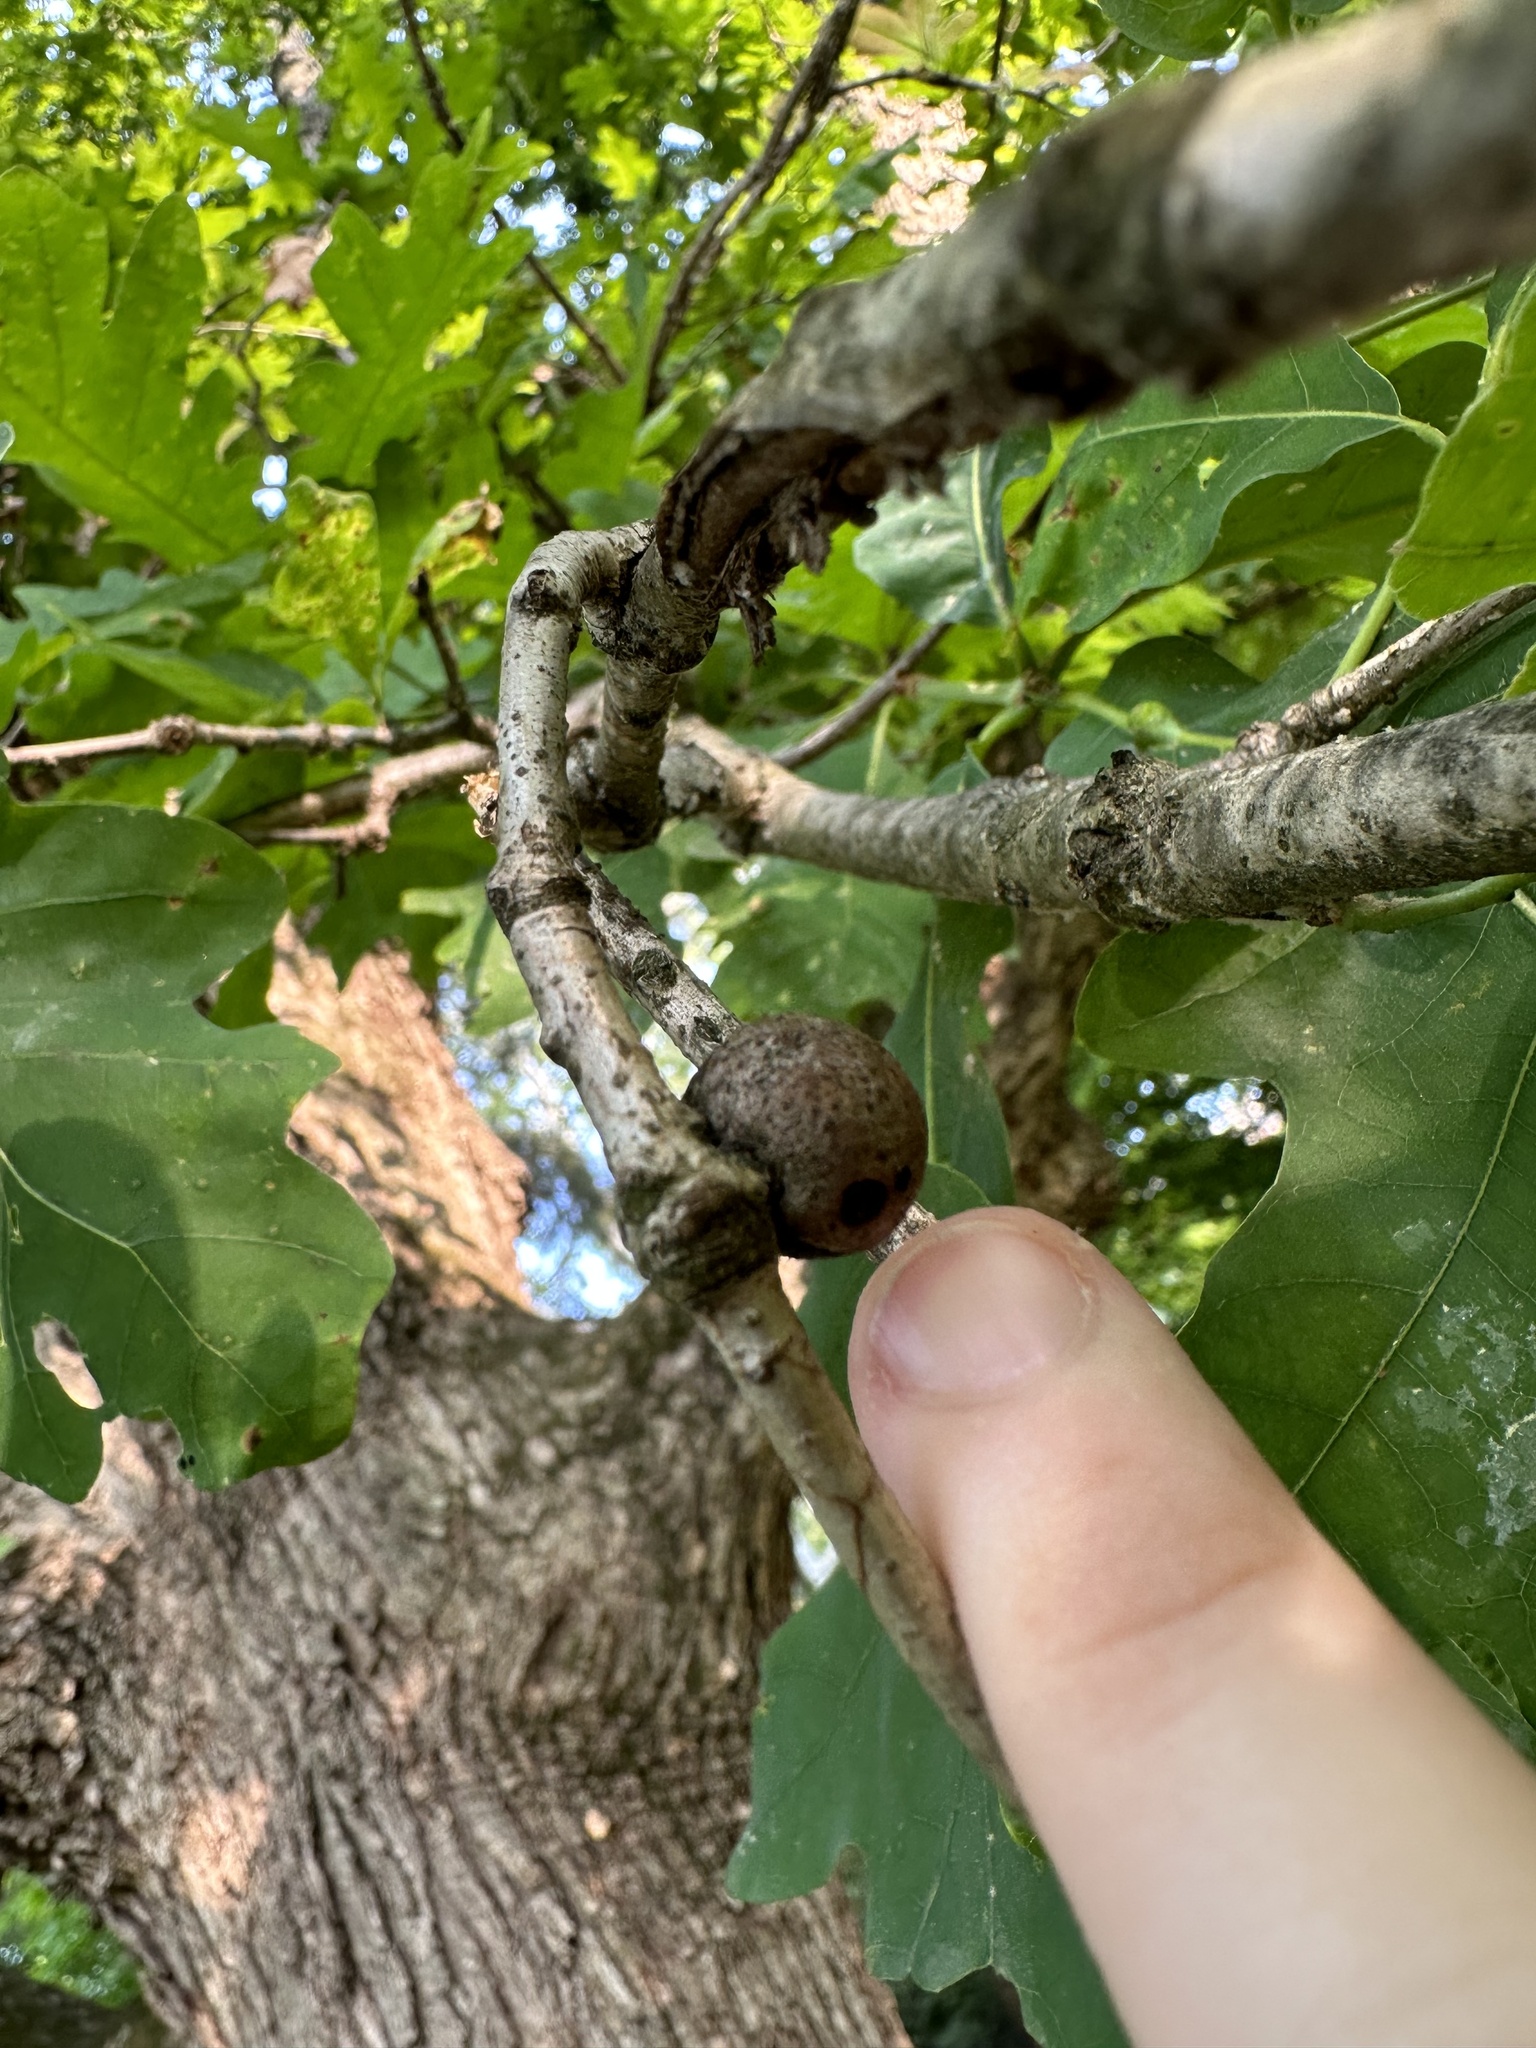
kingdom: Animalia
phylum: Arthropoda
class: Insecta
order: Hymenoptera
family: Cynipidae
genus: Disholcaspis
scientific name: Disholcaspis quercusglobulus
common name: Round bullet gall wasp
